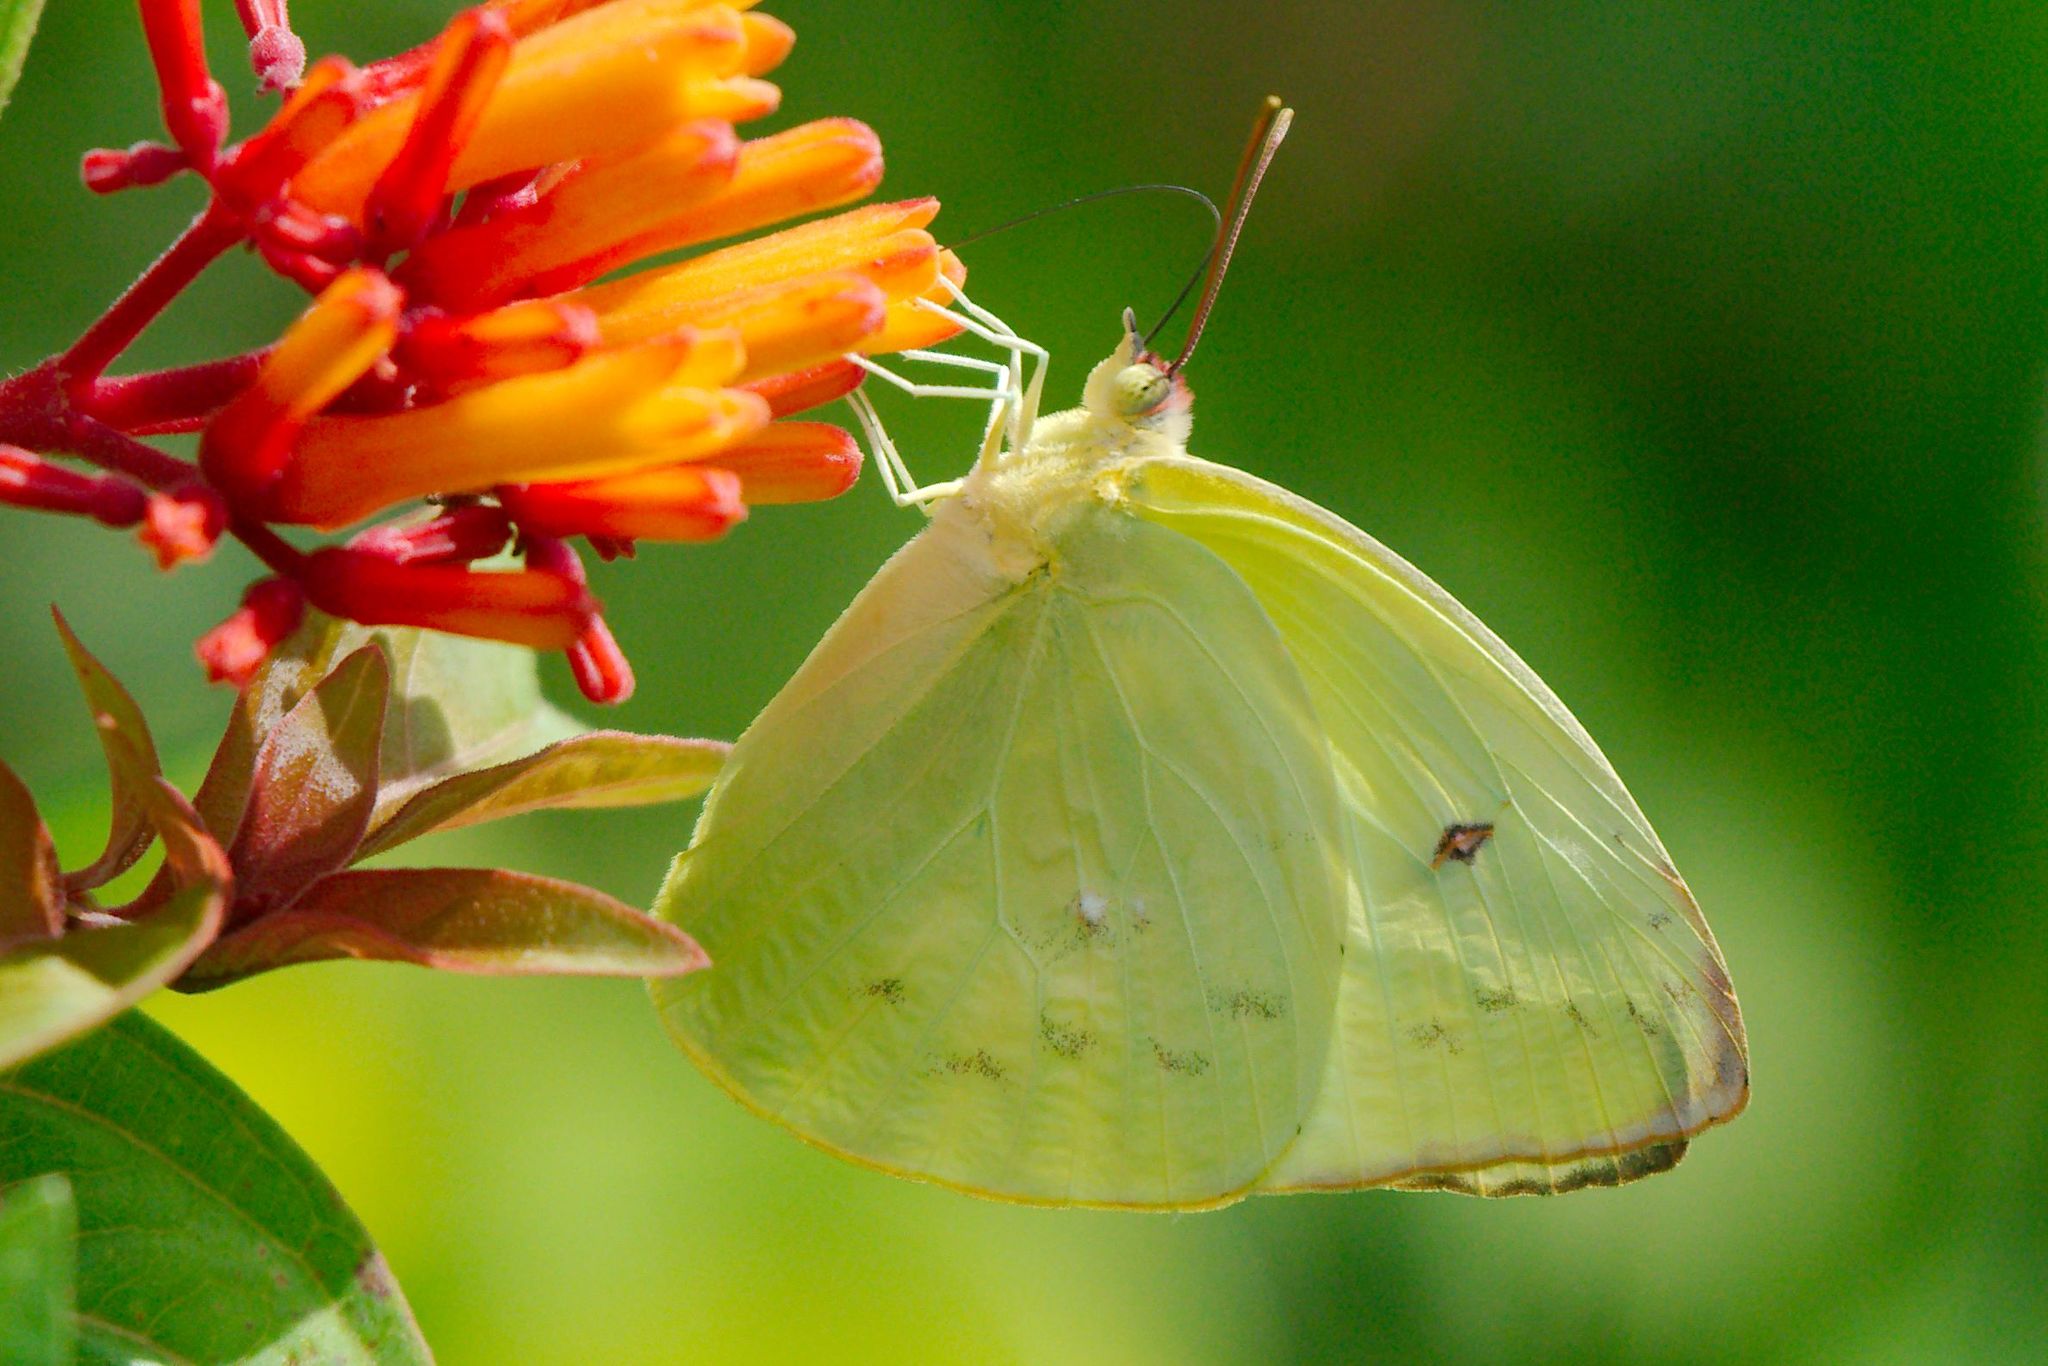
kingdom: Animalia
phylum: Arthropoda
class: Insecta
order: Lepidoptera
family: Pieridae
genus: Aphrissa
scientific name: Aphrissa statira
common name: Statira sulphur
